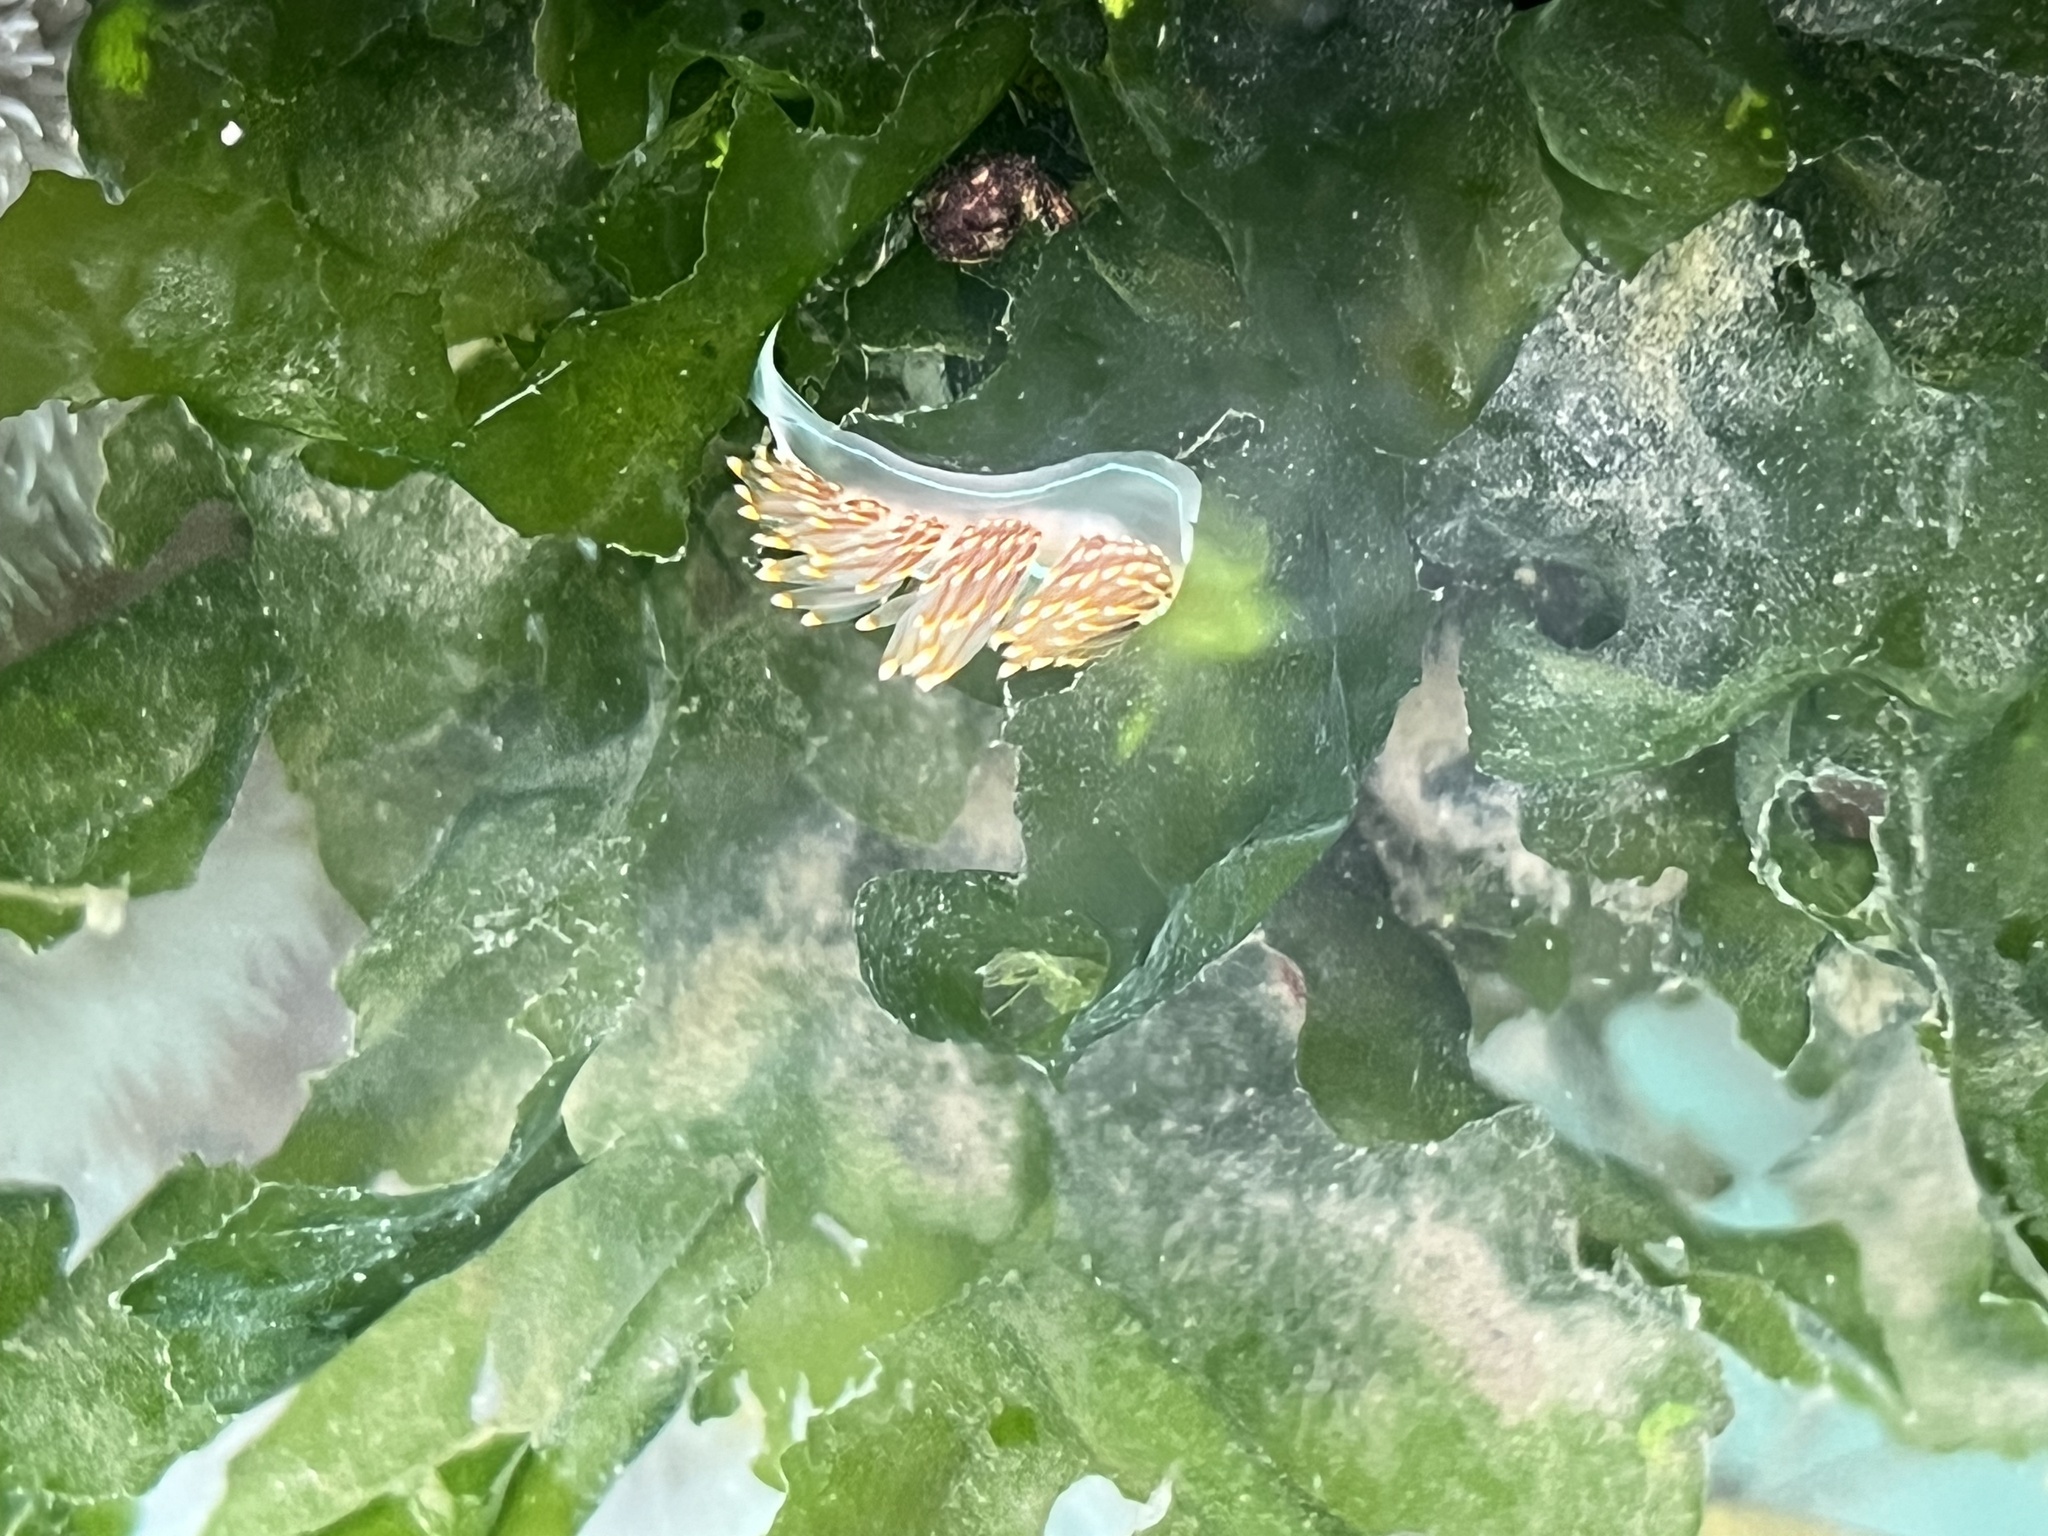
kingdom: Animalia
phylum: Mollusca
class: Gastropoda
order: Nudibranchia
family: Myrrhinidae
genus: Hermissenda
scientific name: Hermissenda opalescens
